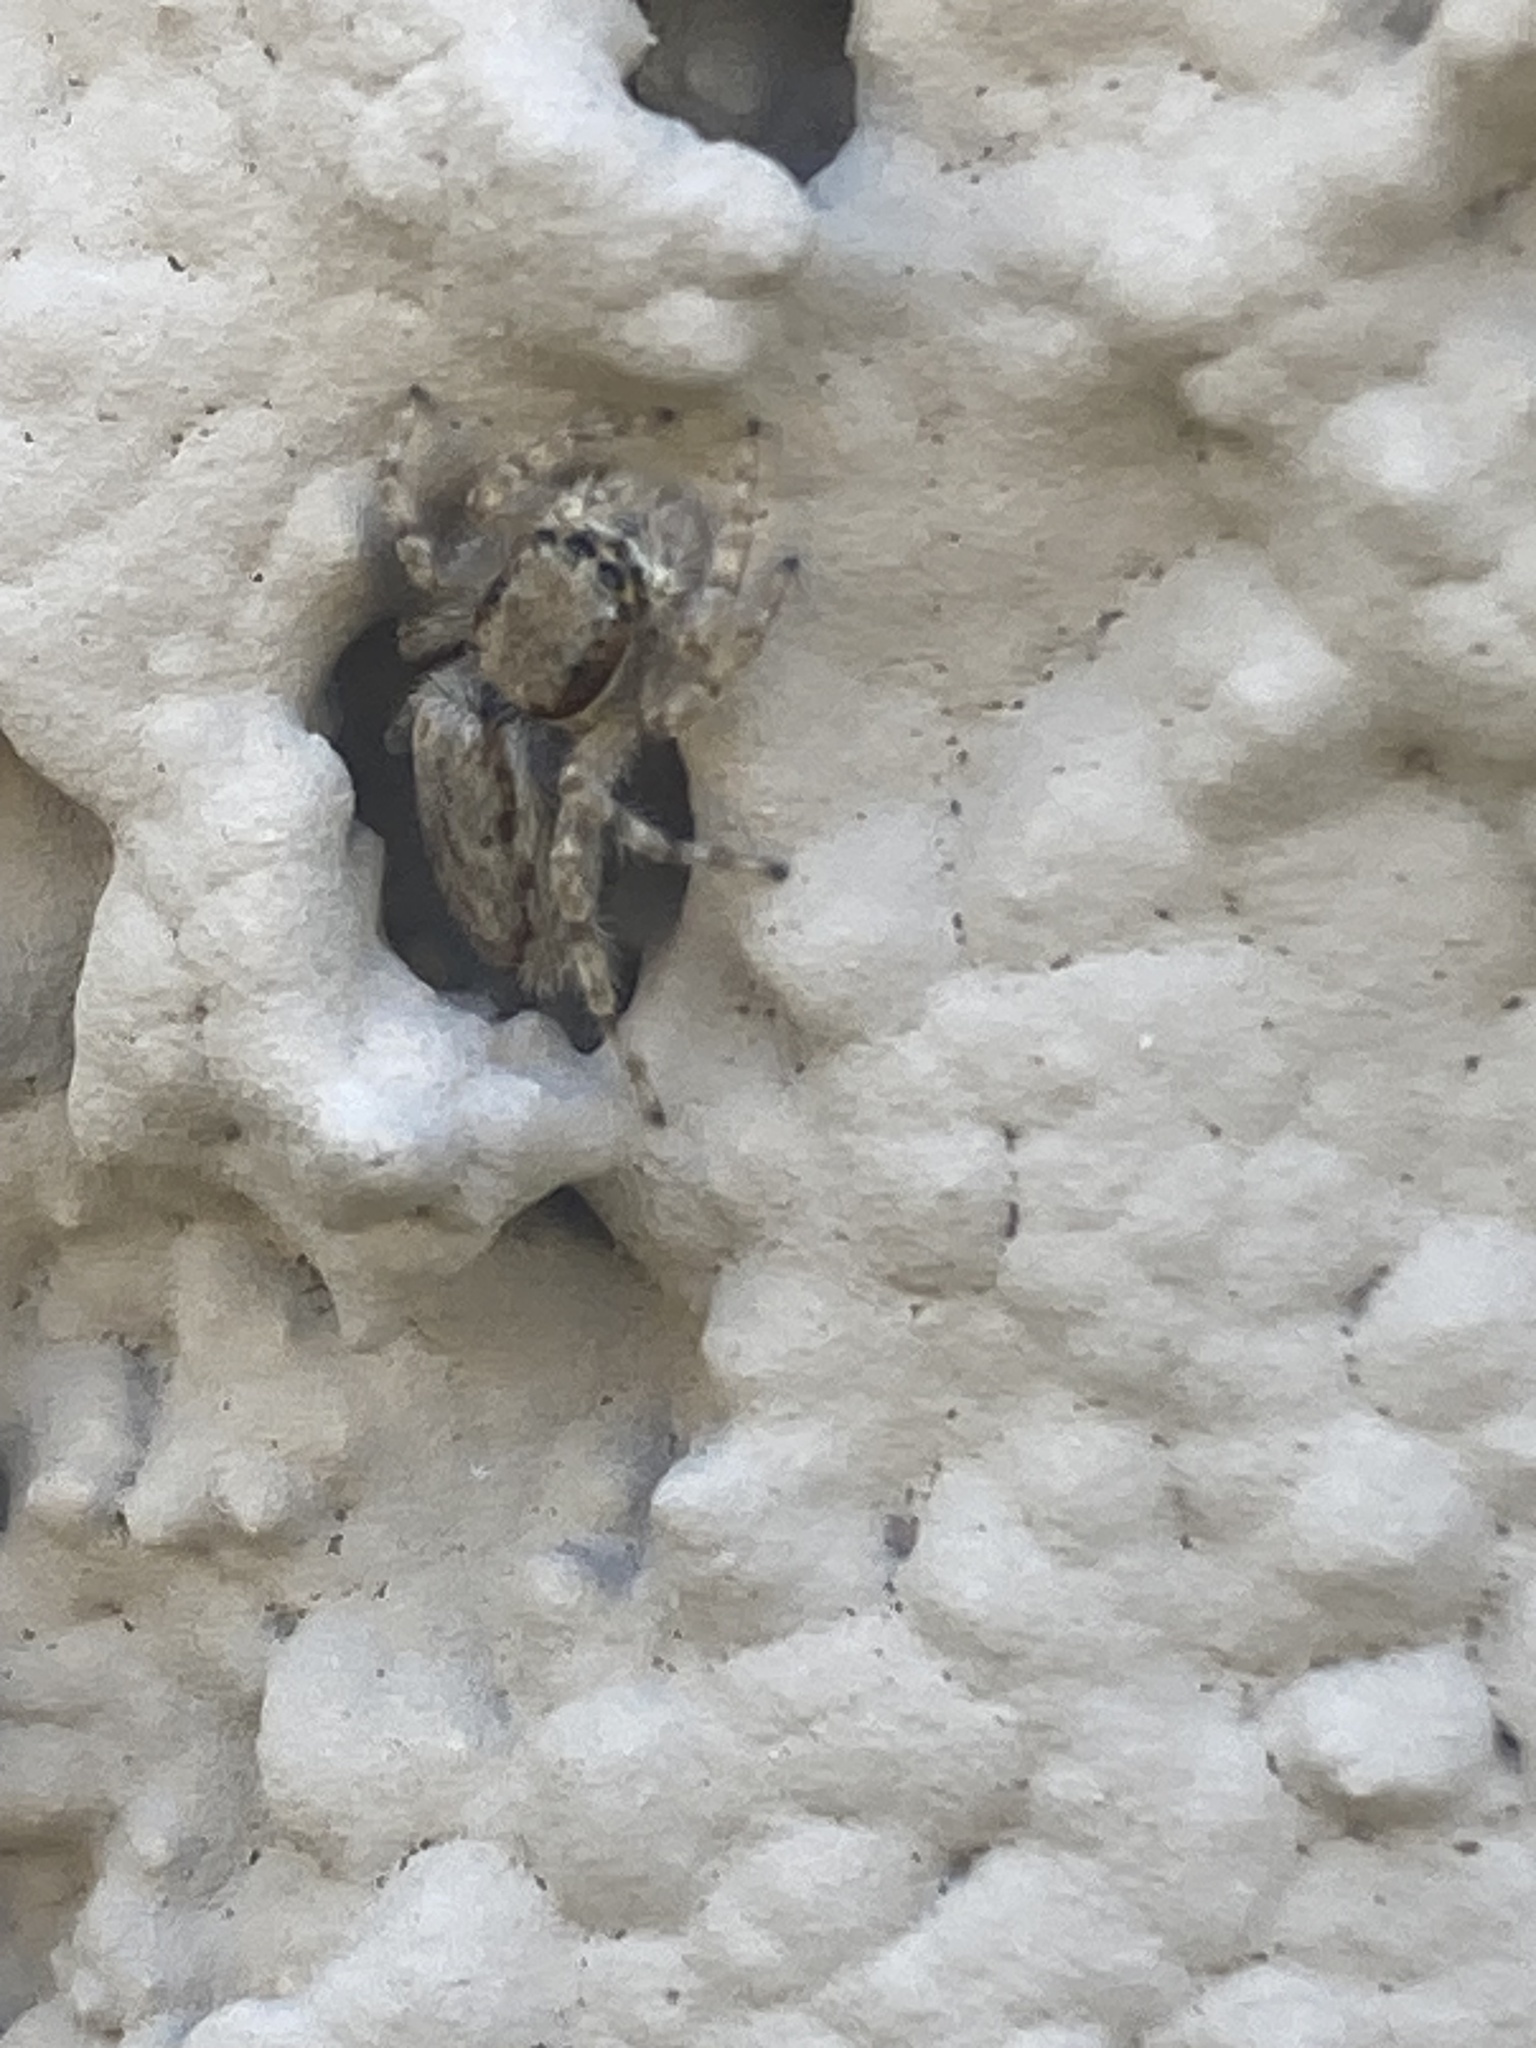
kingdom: Animalia
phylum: Arthropoda
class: Arachnida
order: Araneae
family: Salticidae
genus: Menemerus
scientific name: Menemerus bivittatus
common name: Gray wall jumper
